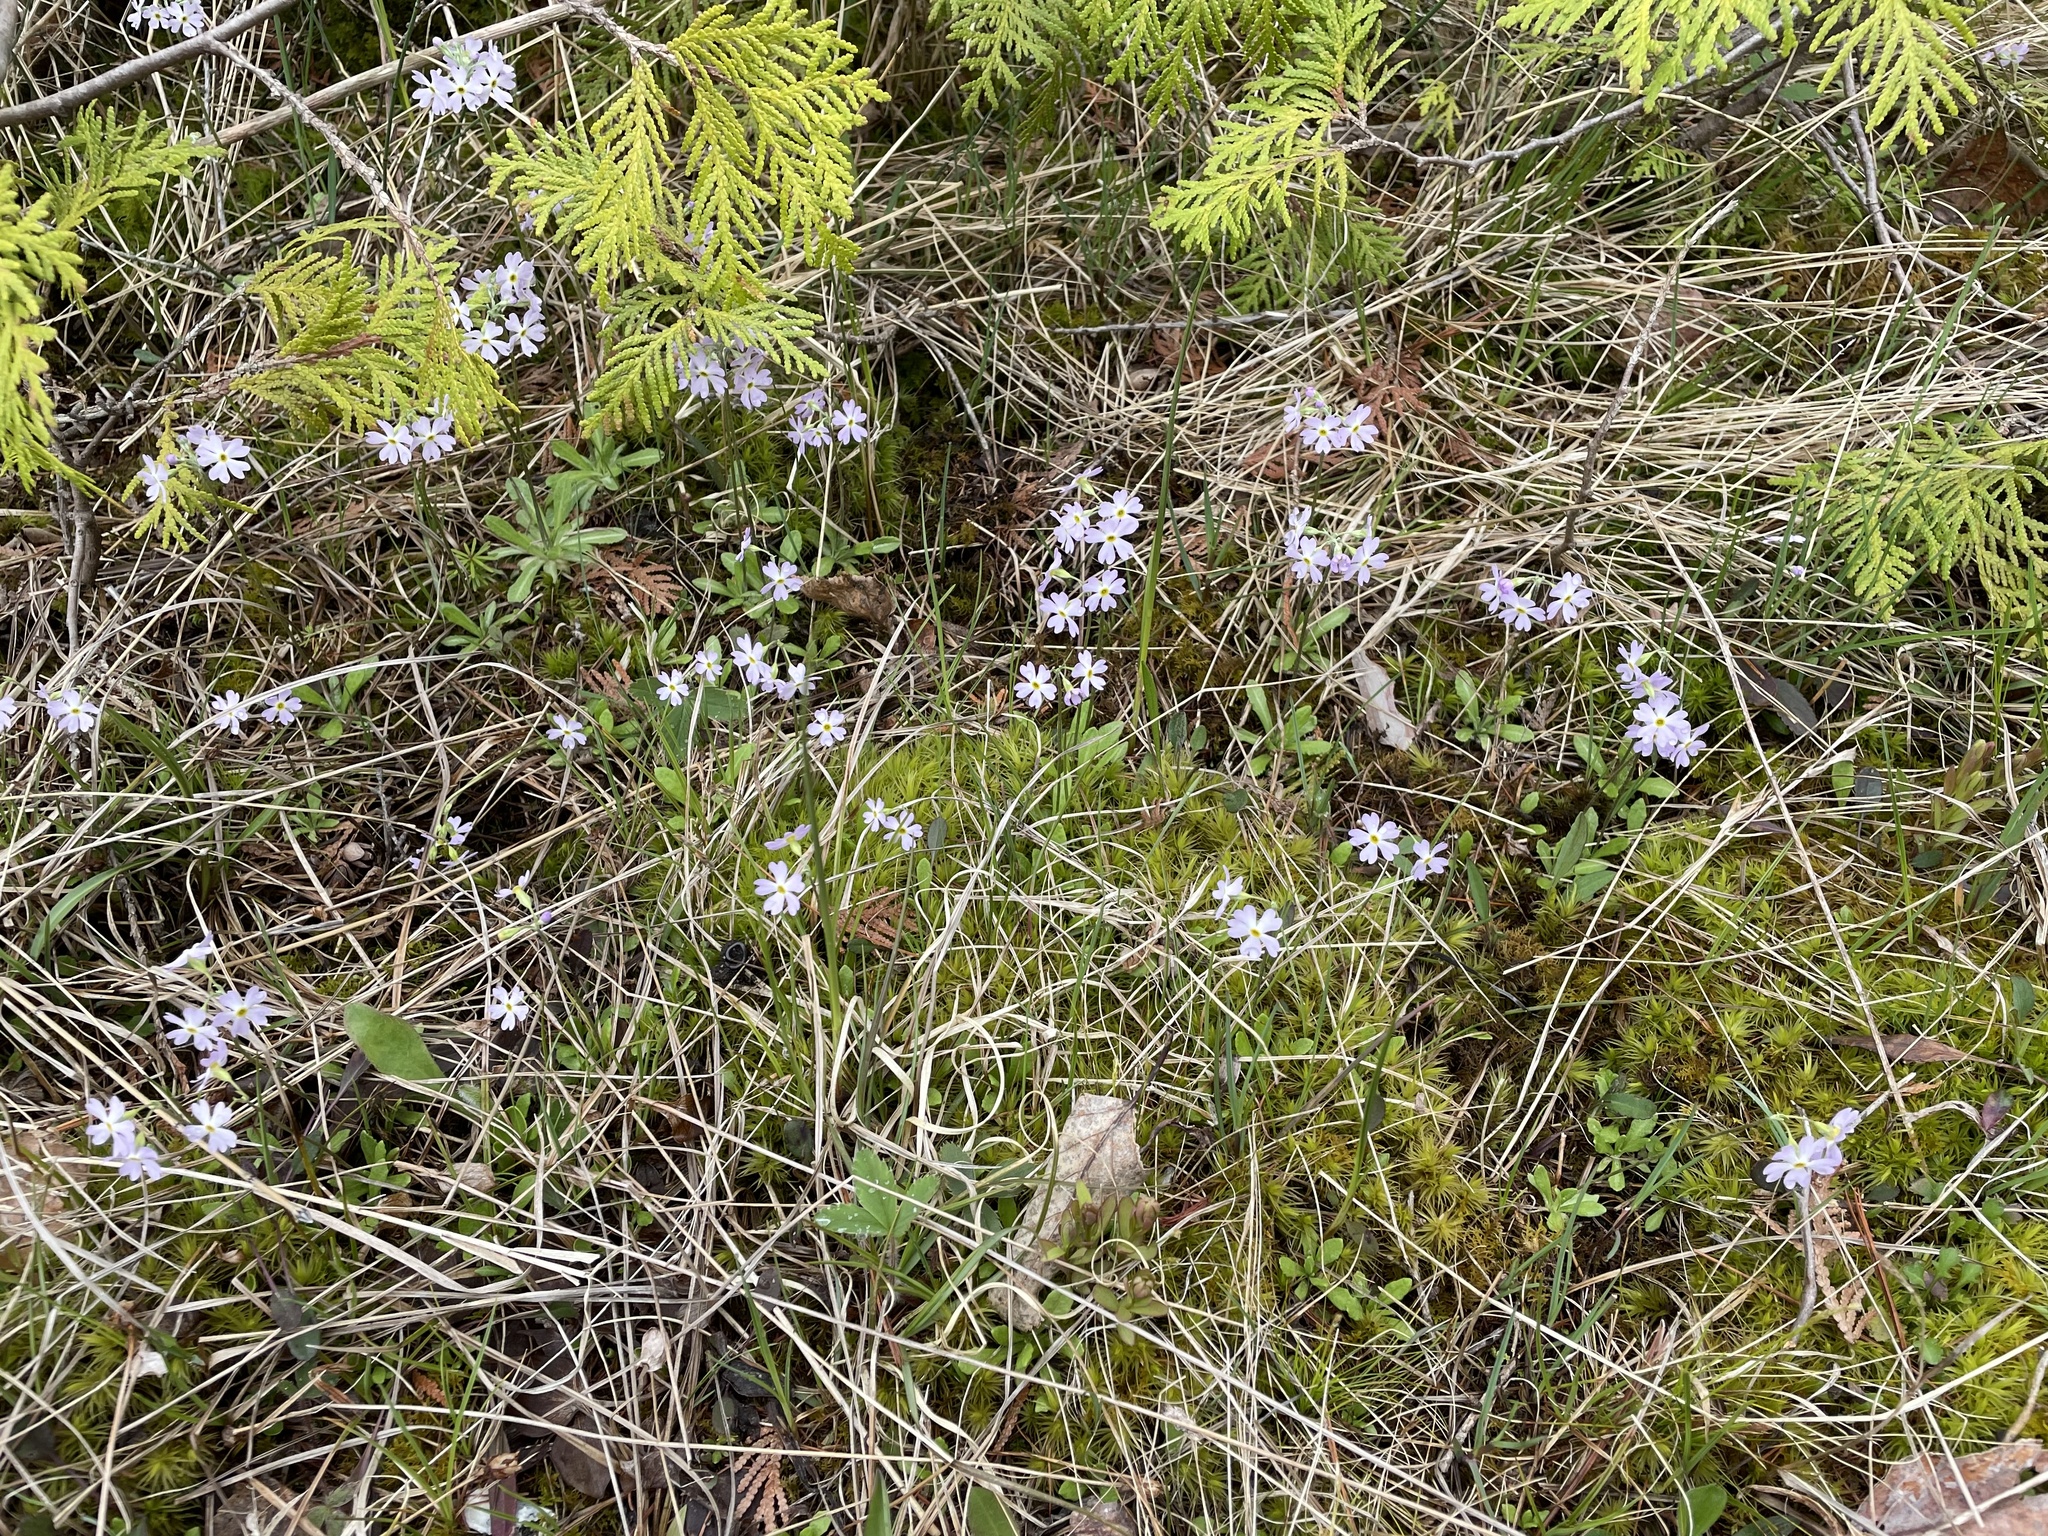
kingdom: Plantae
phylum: Tracheophyta
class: Magnoliopsida
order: Ericales
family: Primulaceae
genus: Primula
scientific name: Primula mistassinica
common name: Bird's-eye primrose
